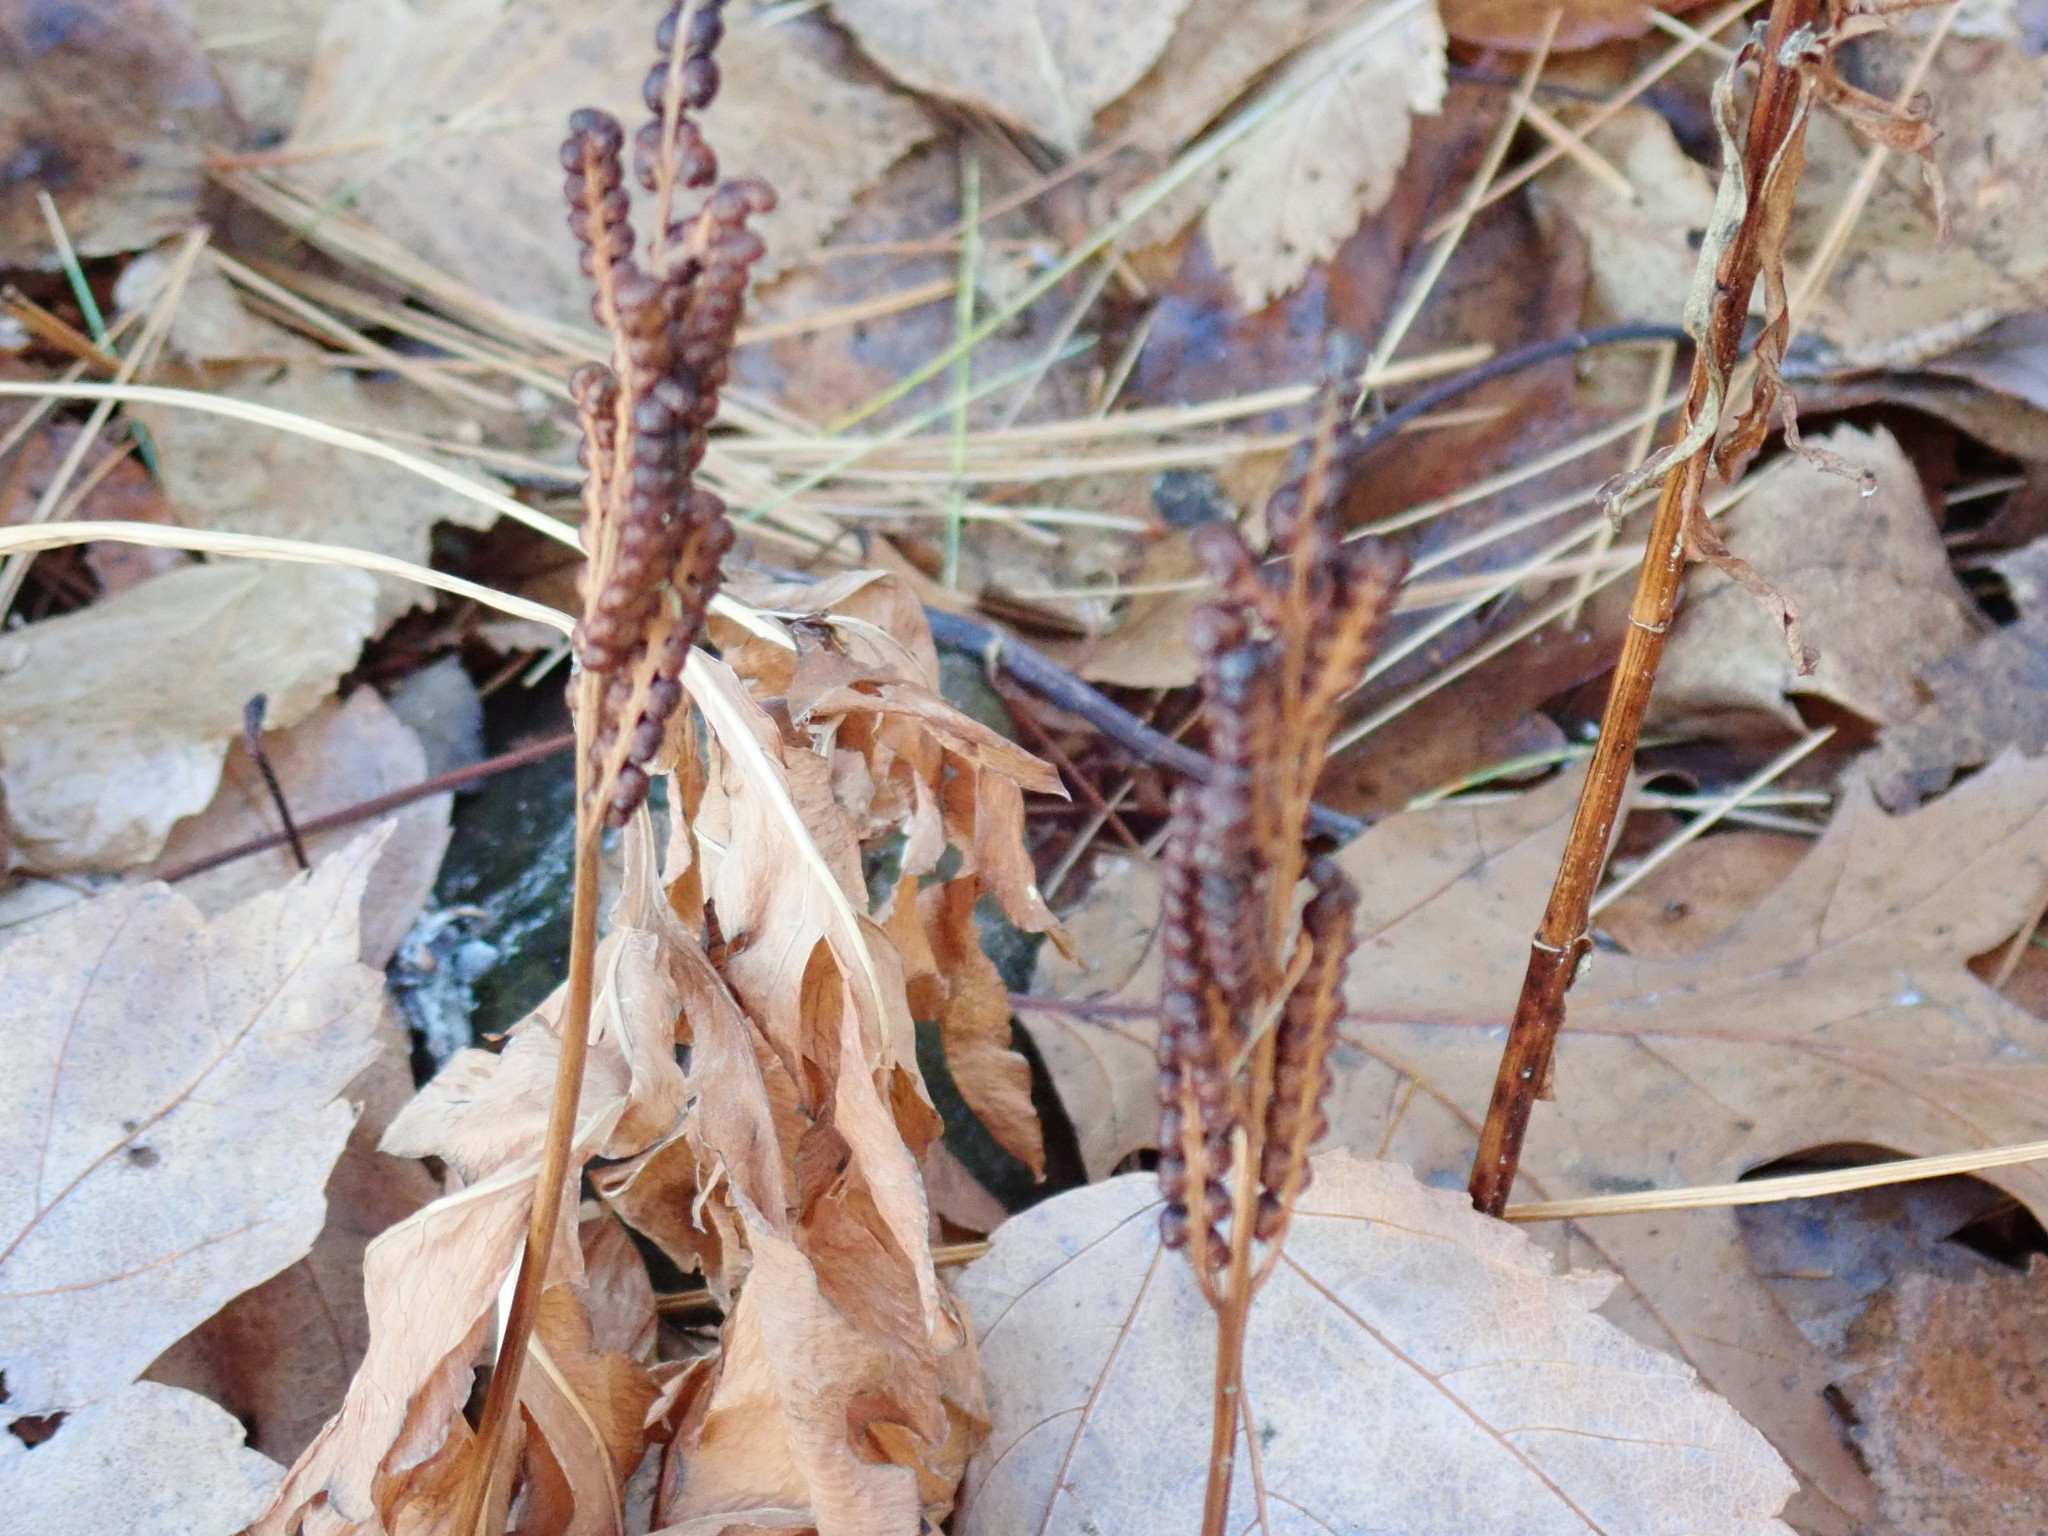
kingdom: Plantae
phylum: Tracheophyta
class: Polypodiopsida
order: Polypodiales
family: Onocleaceae
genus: Onoclea
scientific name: Onoclea sensibilis
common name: Sensitive fern
